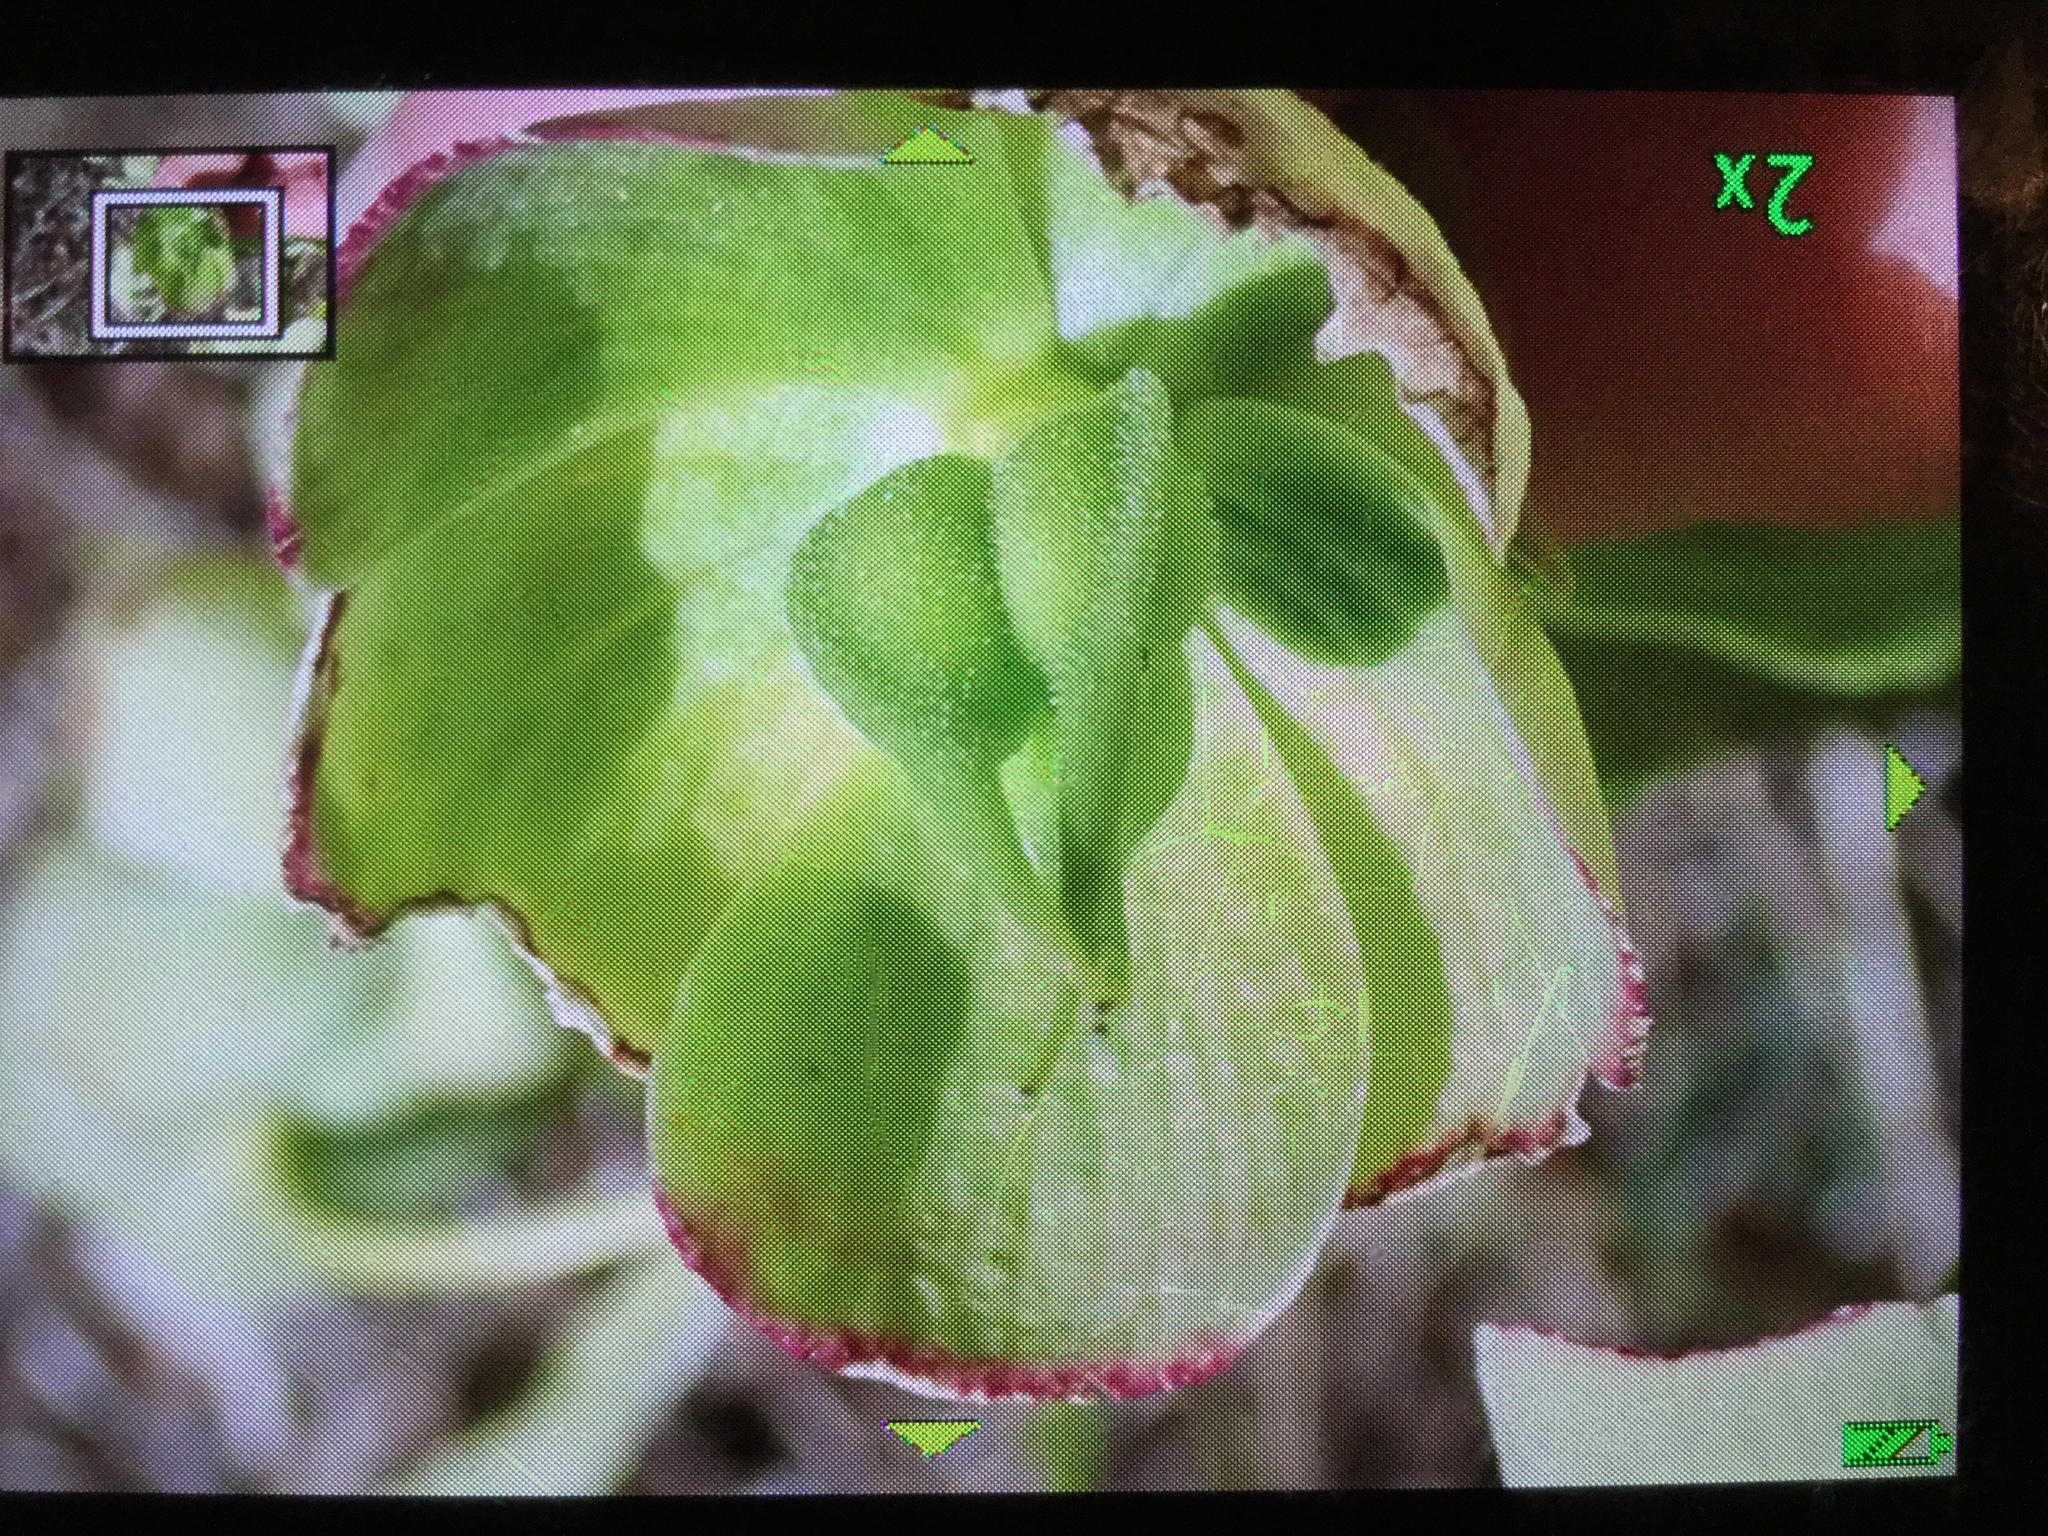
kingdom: Plantae
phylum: Tracheophyta
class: Magnoliopsida
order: Ranunculales
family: Ranunculaceae
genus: Helleborus
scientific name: Helleborus foetidus
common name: Stinking hellebore
